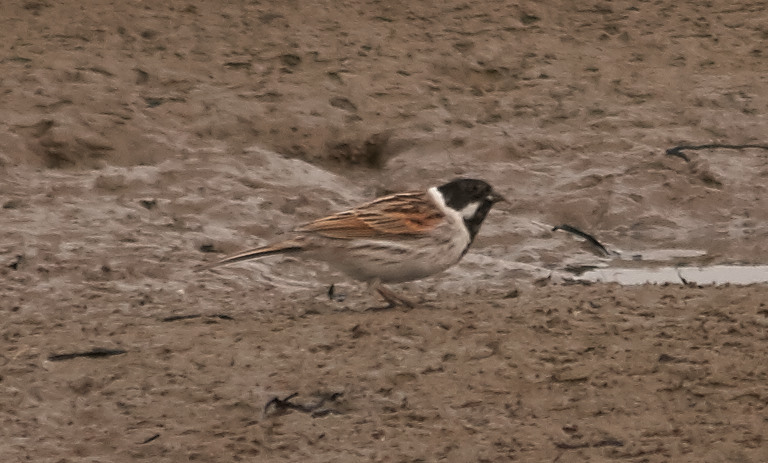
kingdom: Animalia
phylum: Chordata
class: Aves
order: Passeriformes
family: Emberizidae
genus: Emberiza
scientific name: Emberiza schoeniclus
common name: Reed bunting
